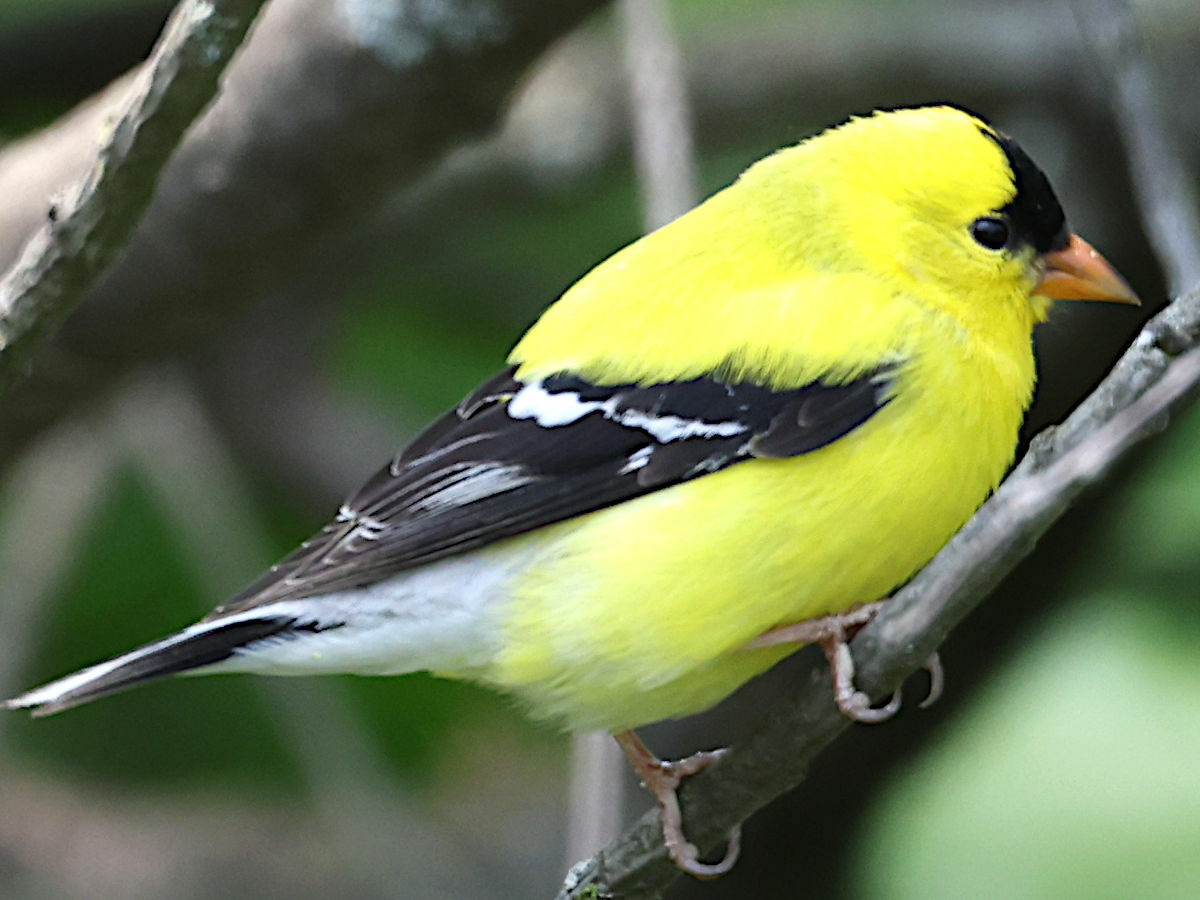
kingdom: Animalia
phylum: Chordata
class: Aves
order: Passeriformes
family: Fringillidae
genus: Spinus
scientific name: Spinus tristis
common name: American goldfinch
